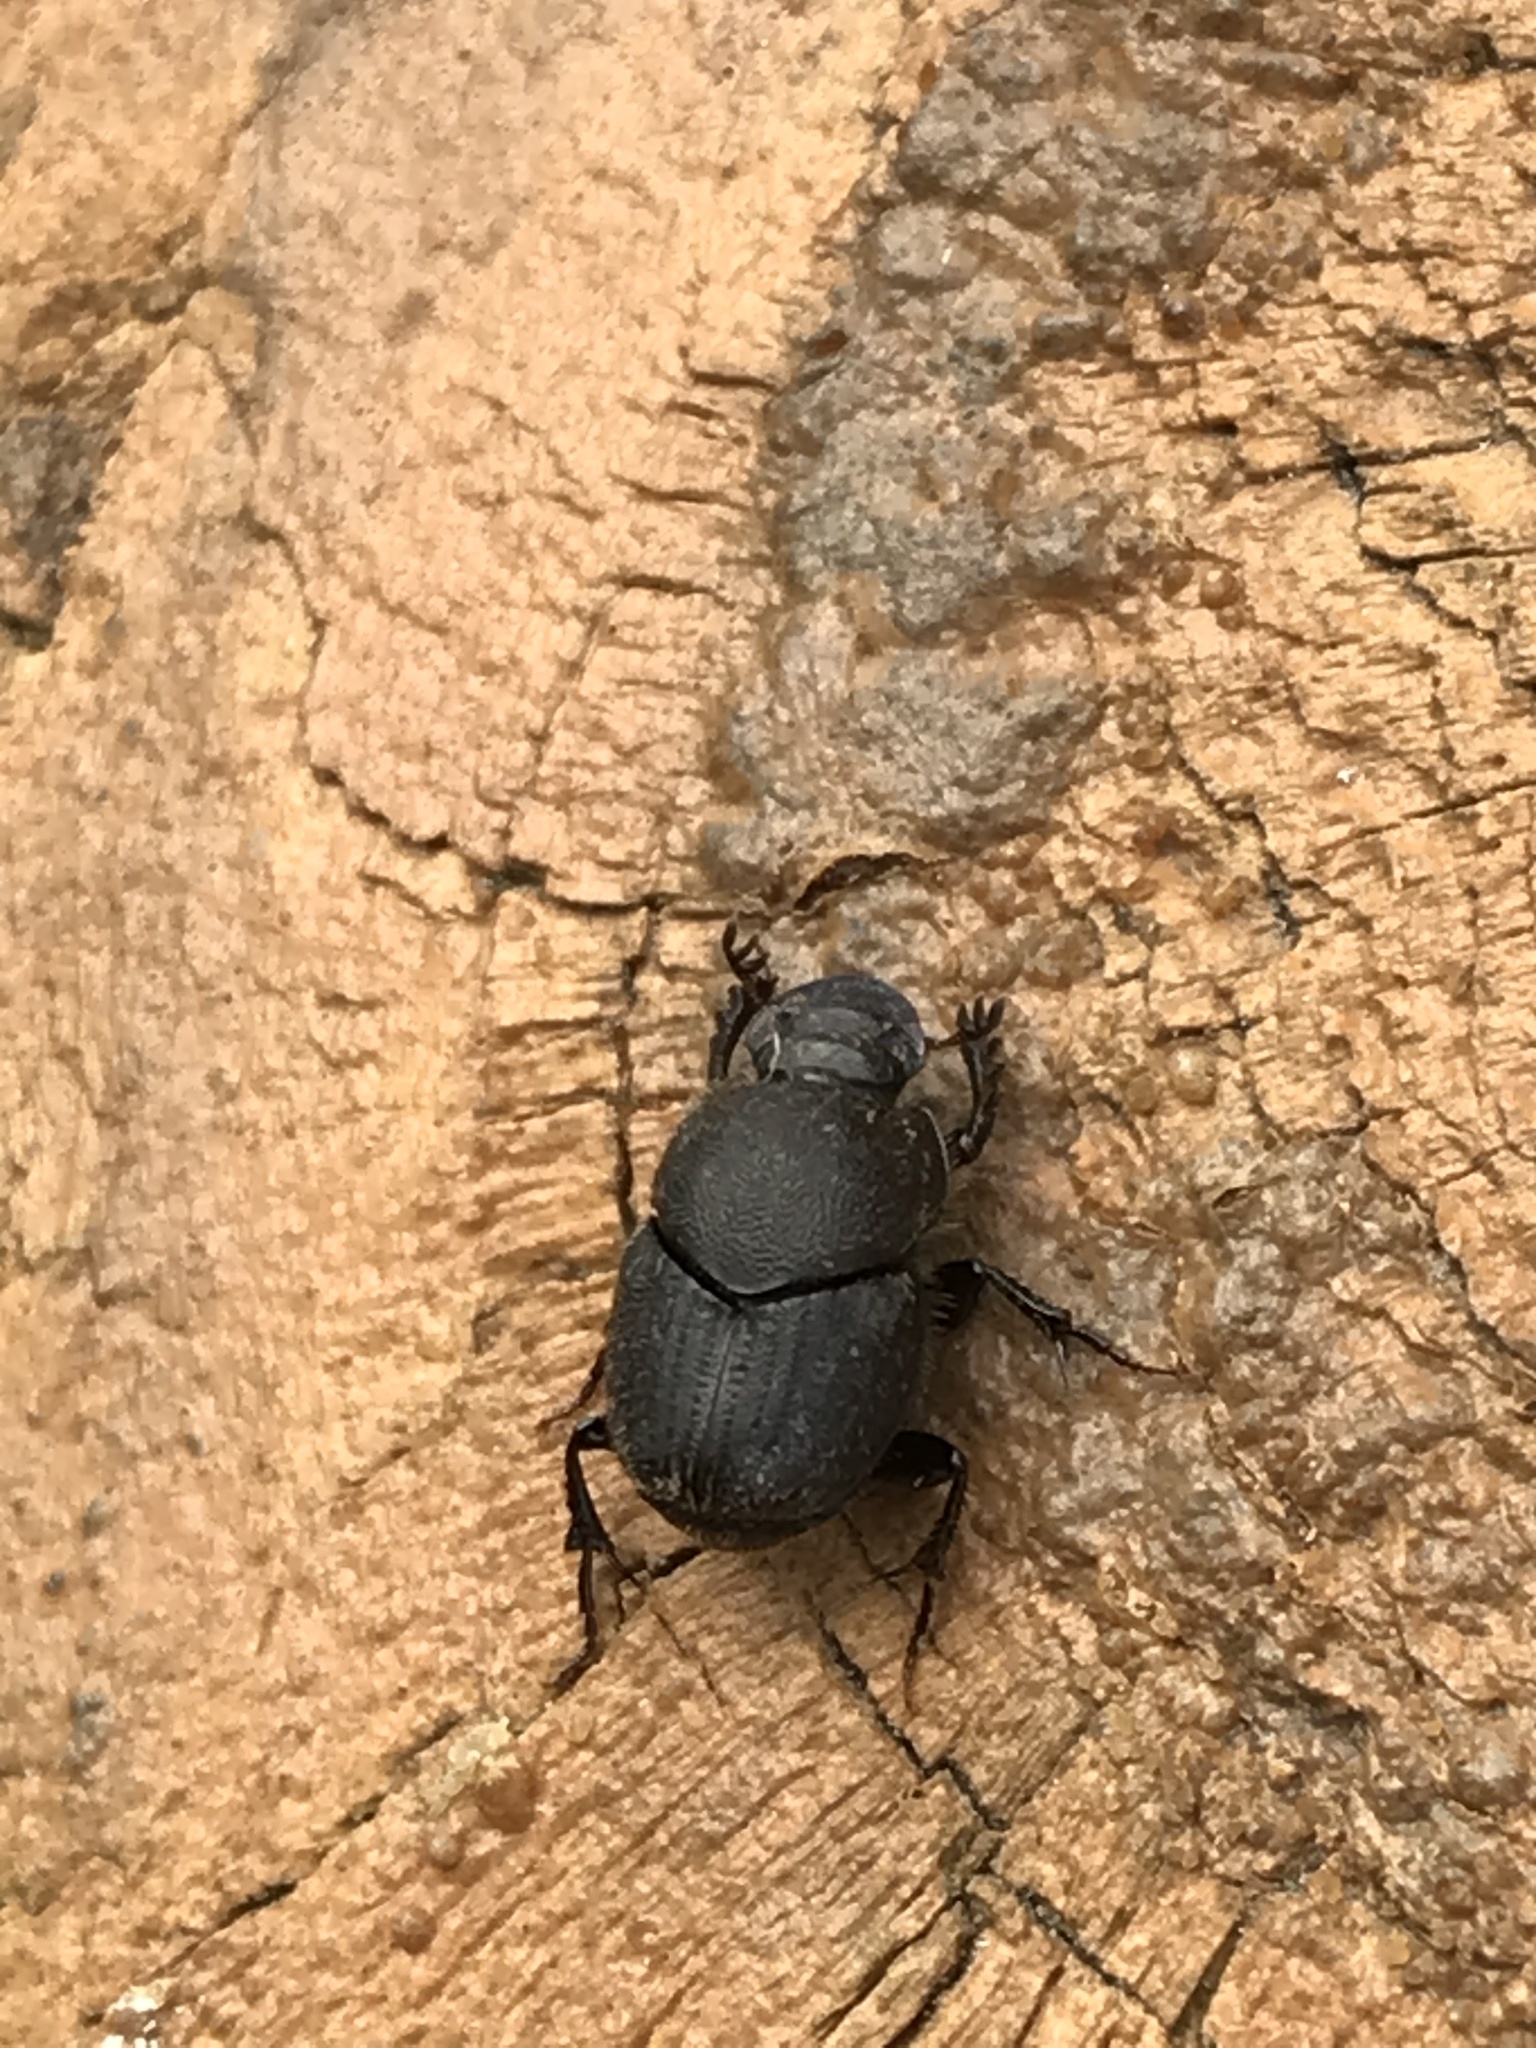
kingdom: Animalia
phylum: Arthropoda
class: Insecta
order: Coleoptera
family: Scarabaeidae
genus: Onthophagus
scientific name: Onthophagus hecate
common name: Scooped scarab
